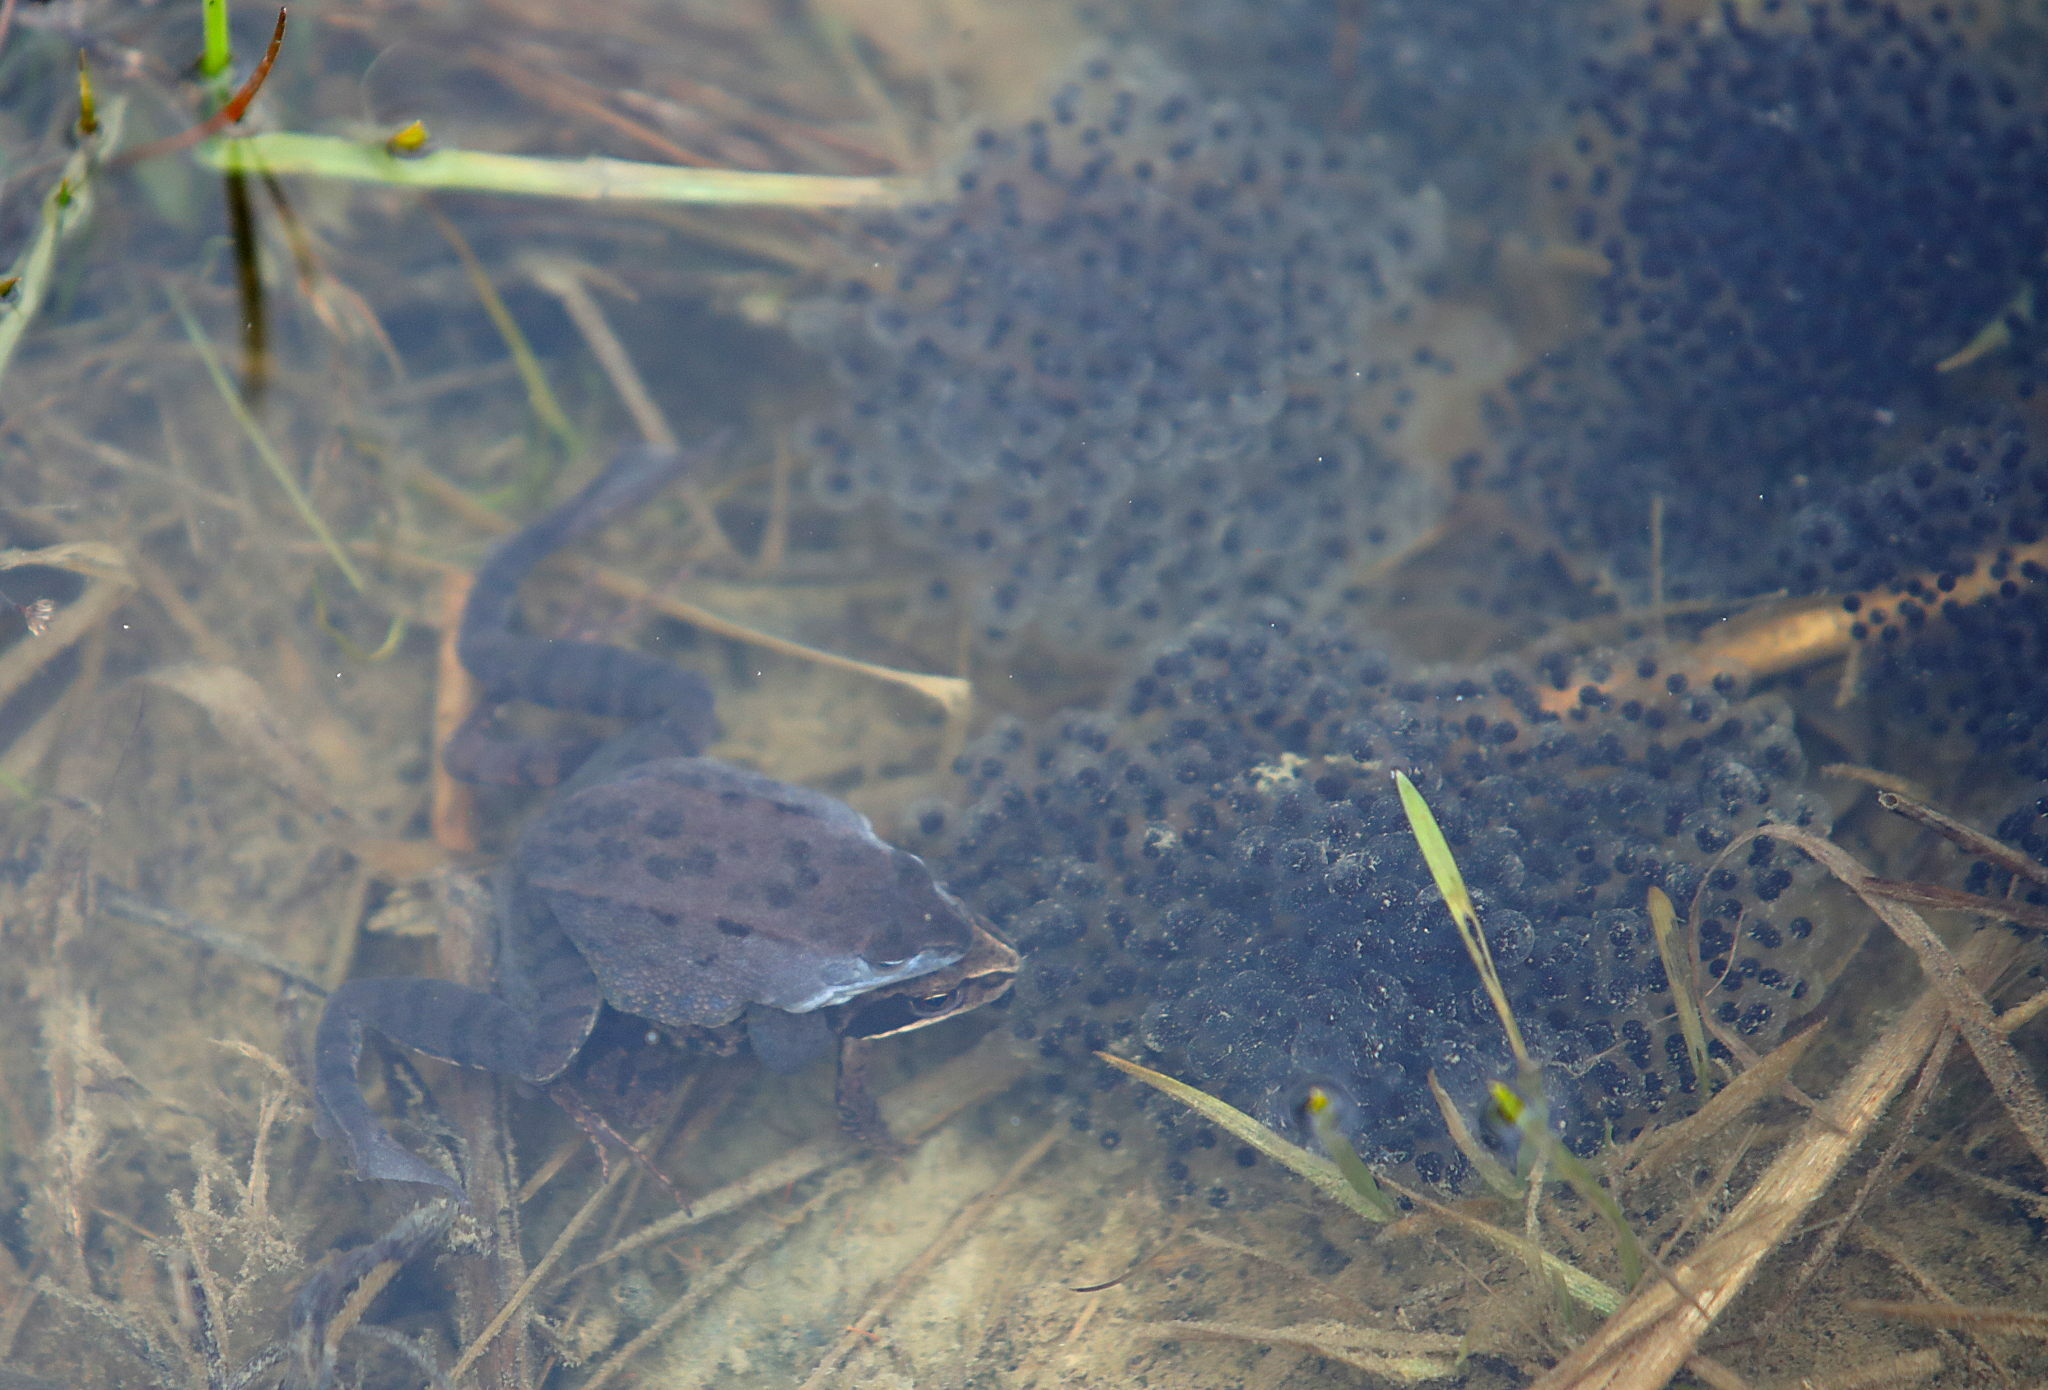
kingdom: Animalia
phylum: Chordata
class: Amphibia
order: Anura
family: Ranidae
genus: Rana
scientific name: Rana arvalis
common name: Moor frog
